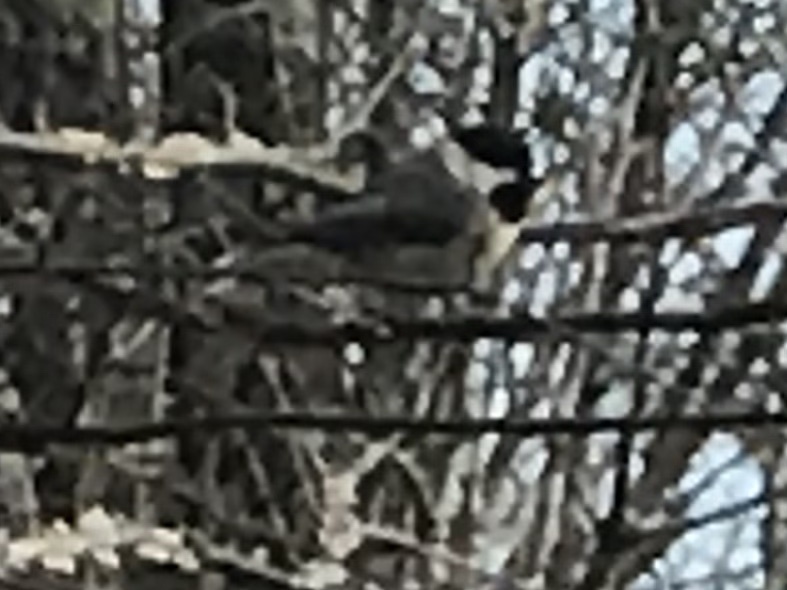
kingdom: Animalia
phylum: Chordata
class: Aves
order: Passeriformes
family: Paridae
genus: Poecile
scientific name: Poecile carolinensis
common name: Carolina chickadee
